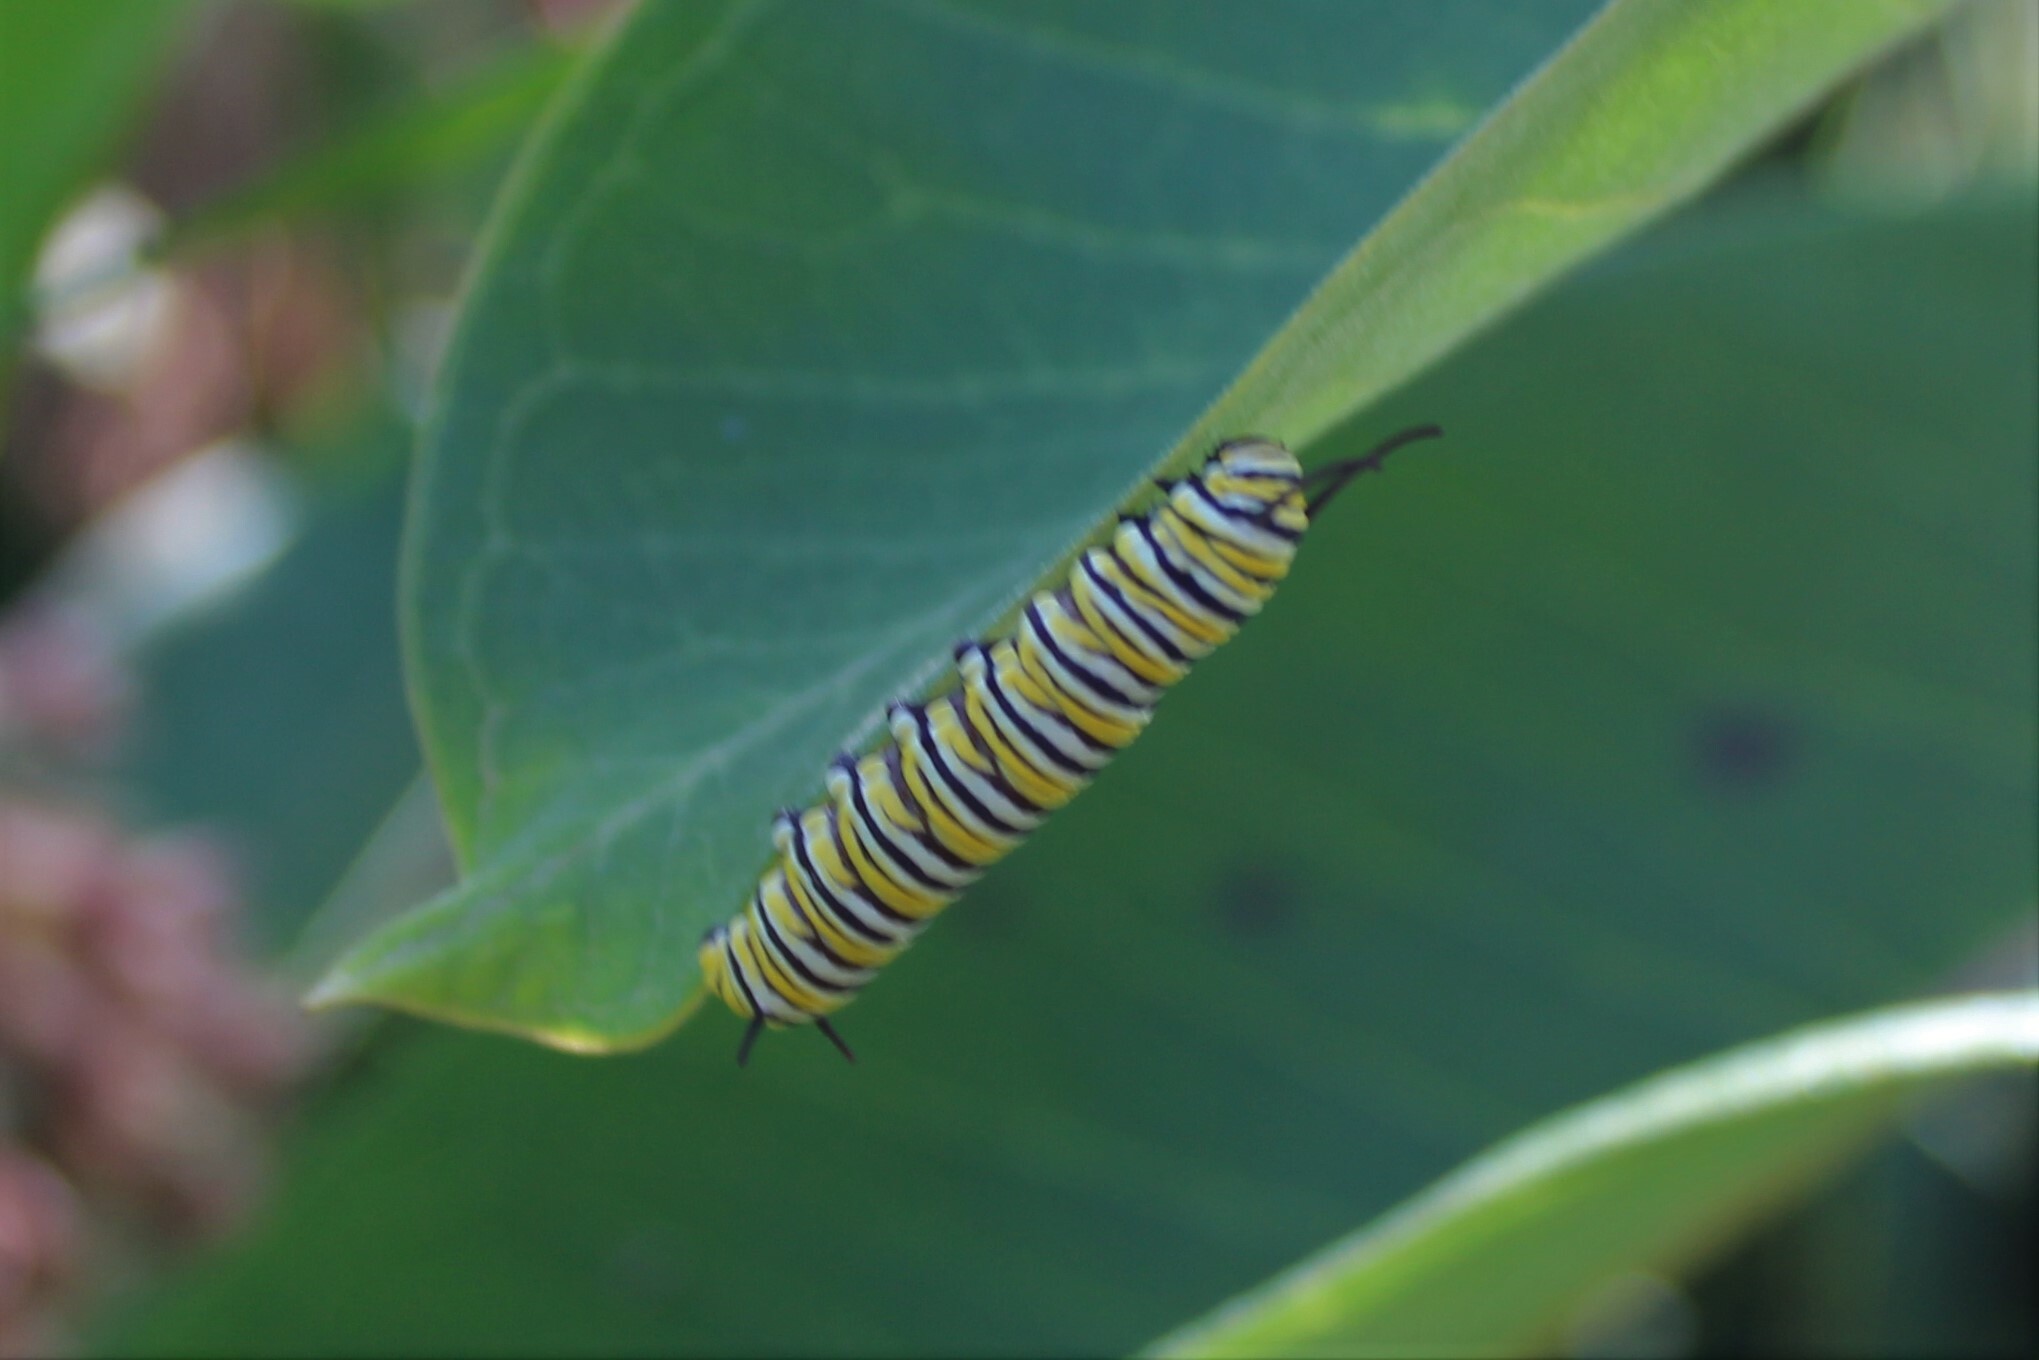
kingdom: Animalia
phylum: Arthropoda
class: Insecta
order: Lepidoptera
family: Nymphalidae
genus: Danaus
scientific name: Danaus plexippus
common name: Monarch
